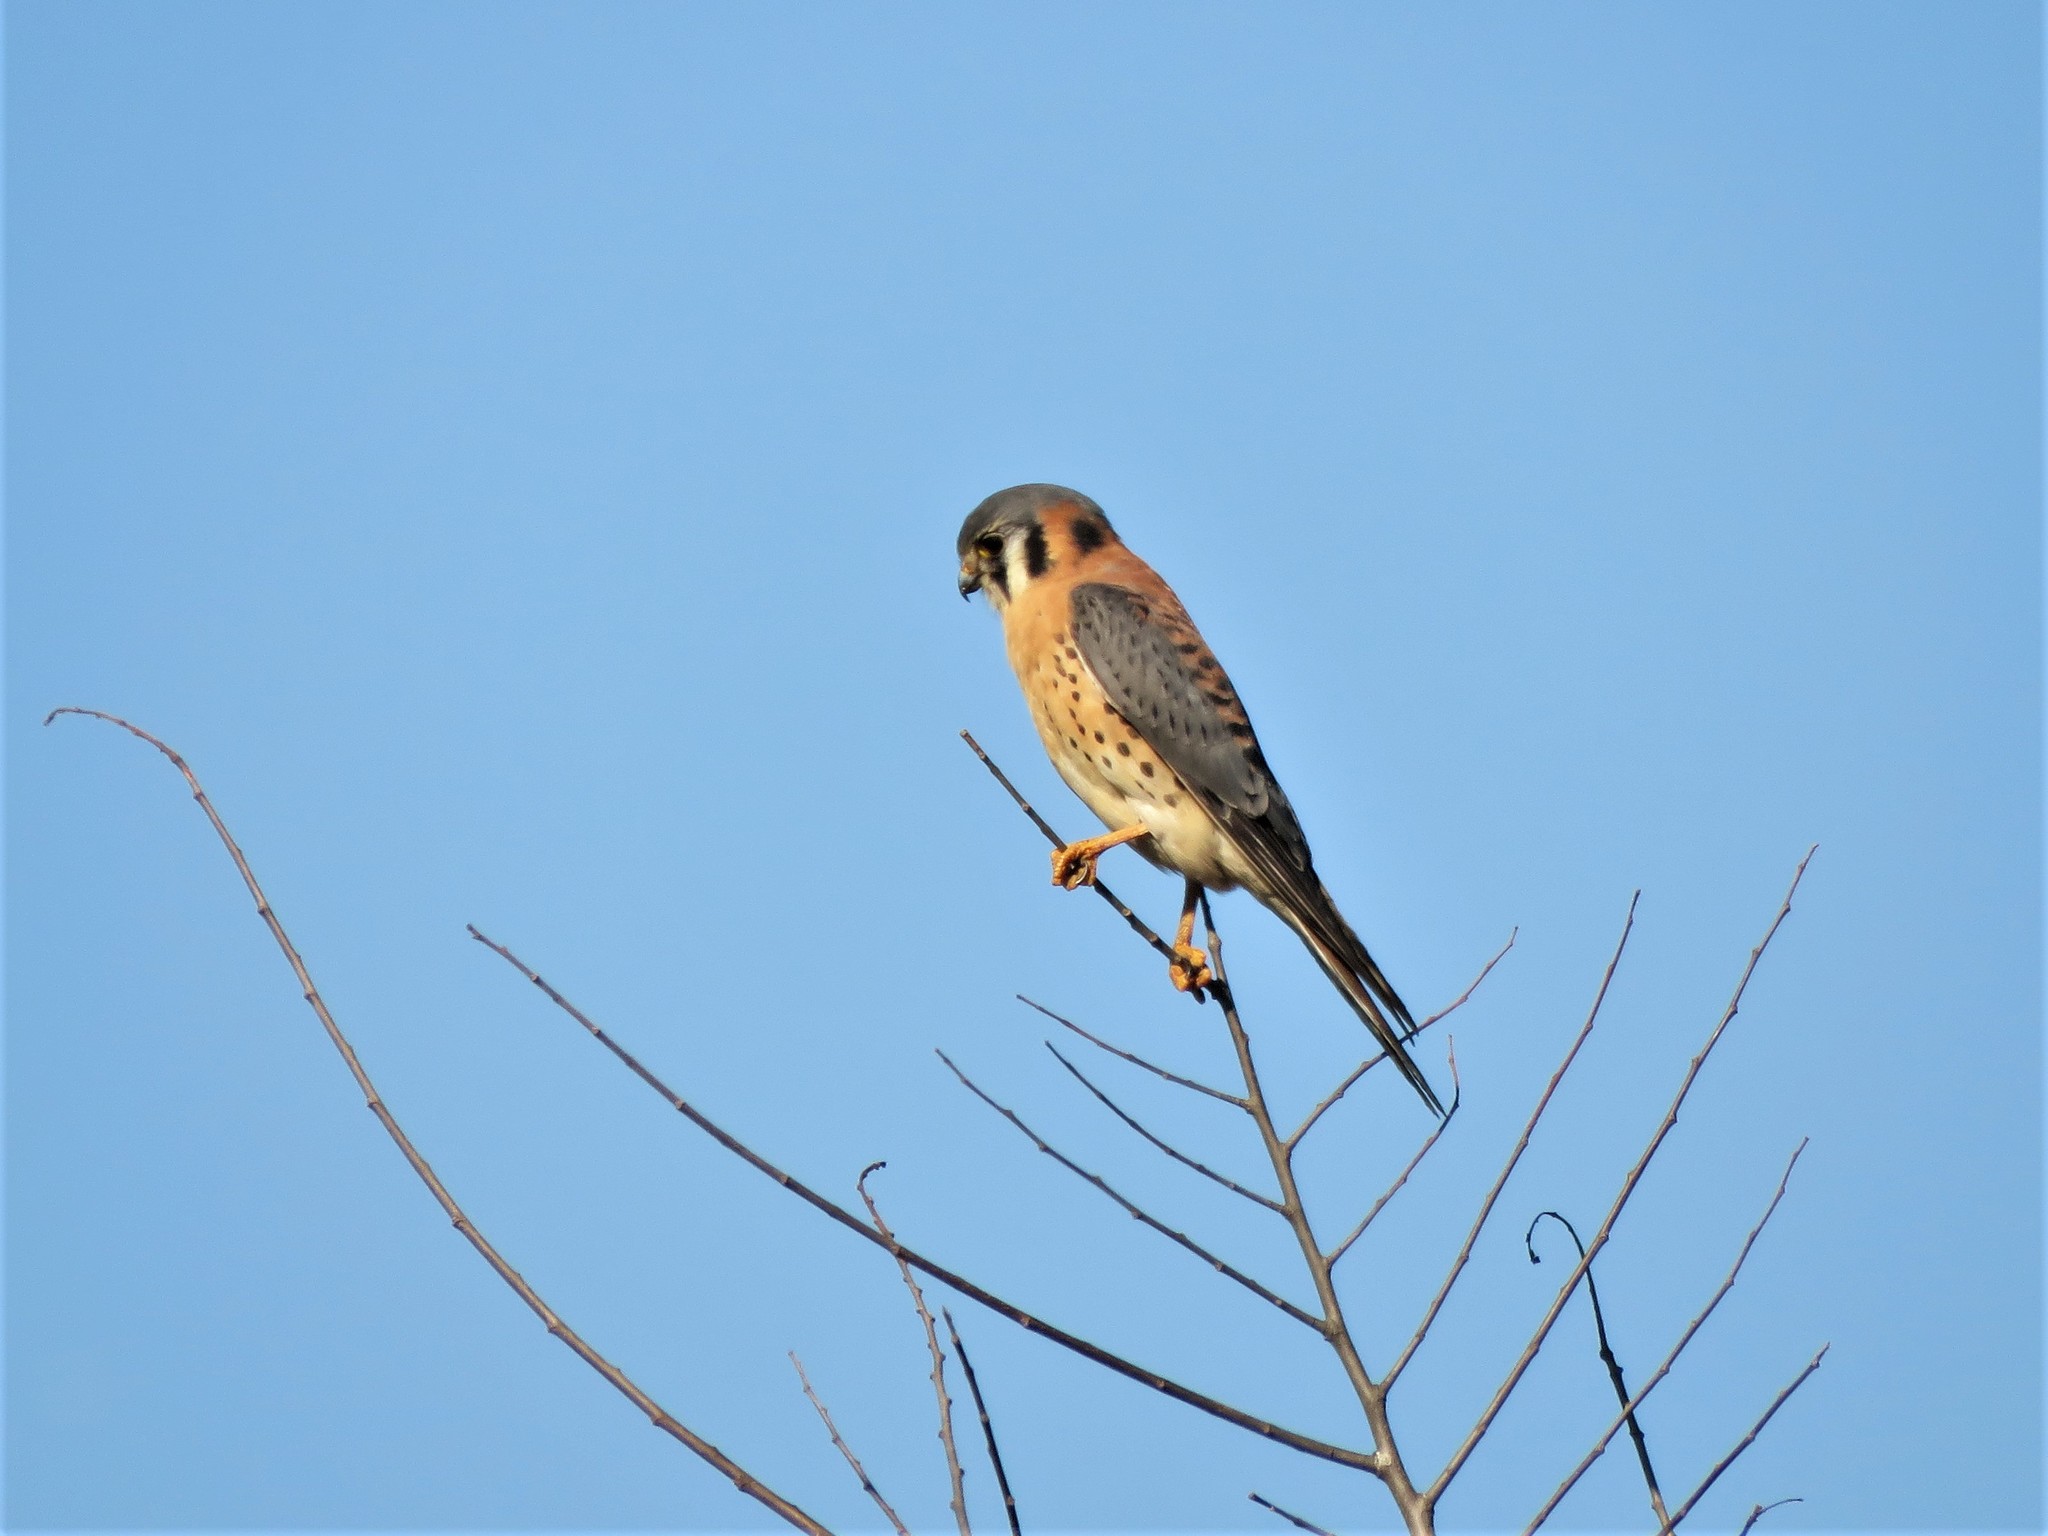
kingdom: Animalia
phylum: Chordata
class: Aves
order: Falconiformes
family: Falconidae
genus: Falco
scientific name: Falco sparverius
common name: American kestrel
